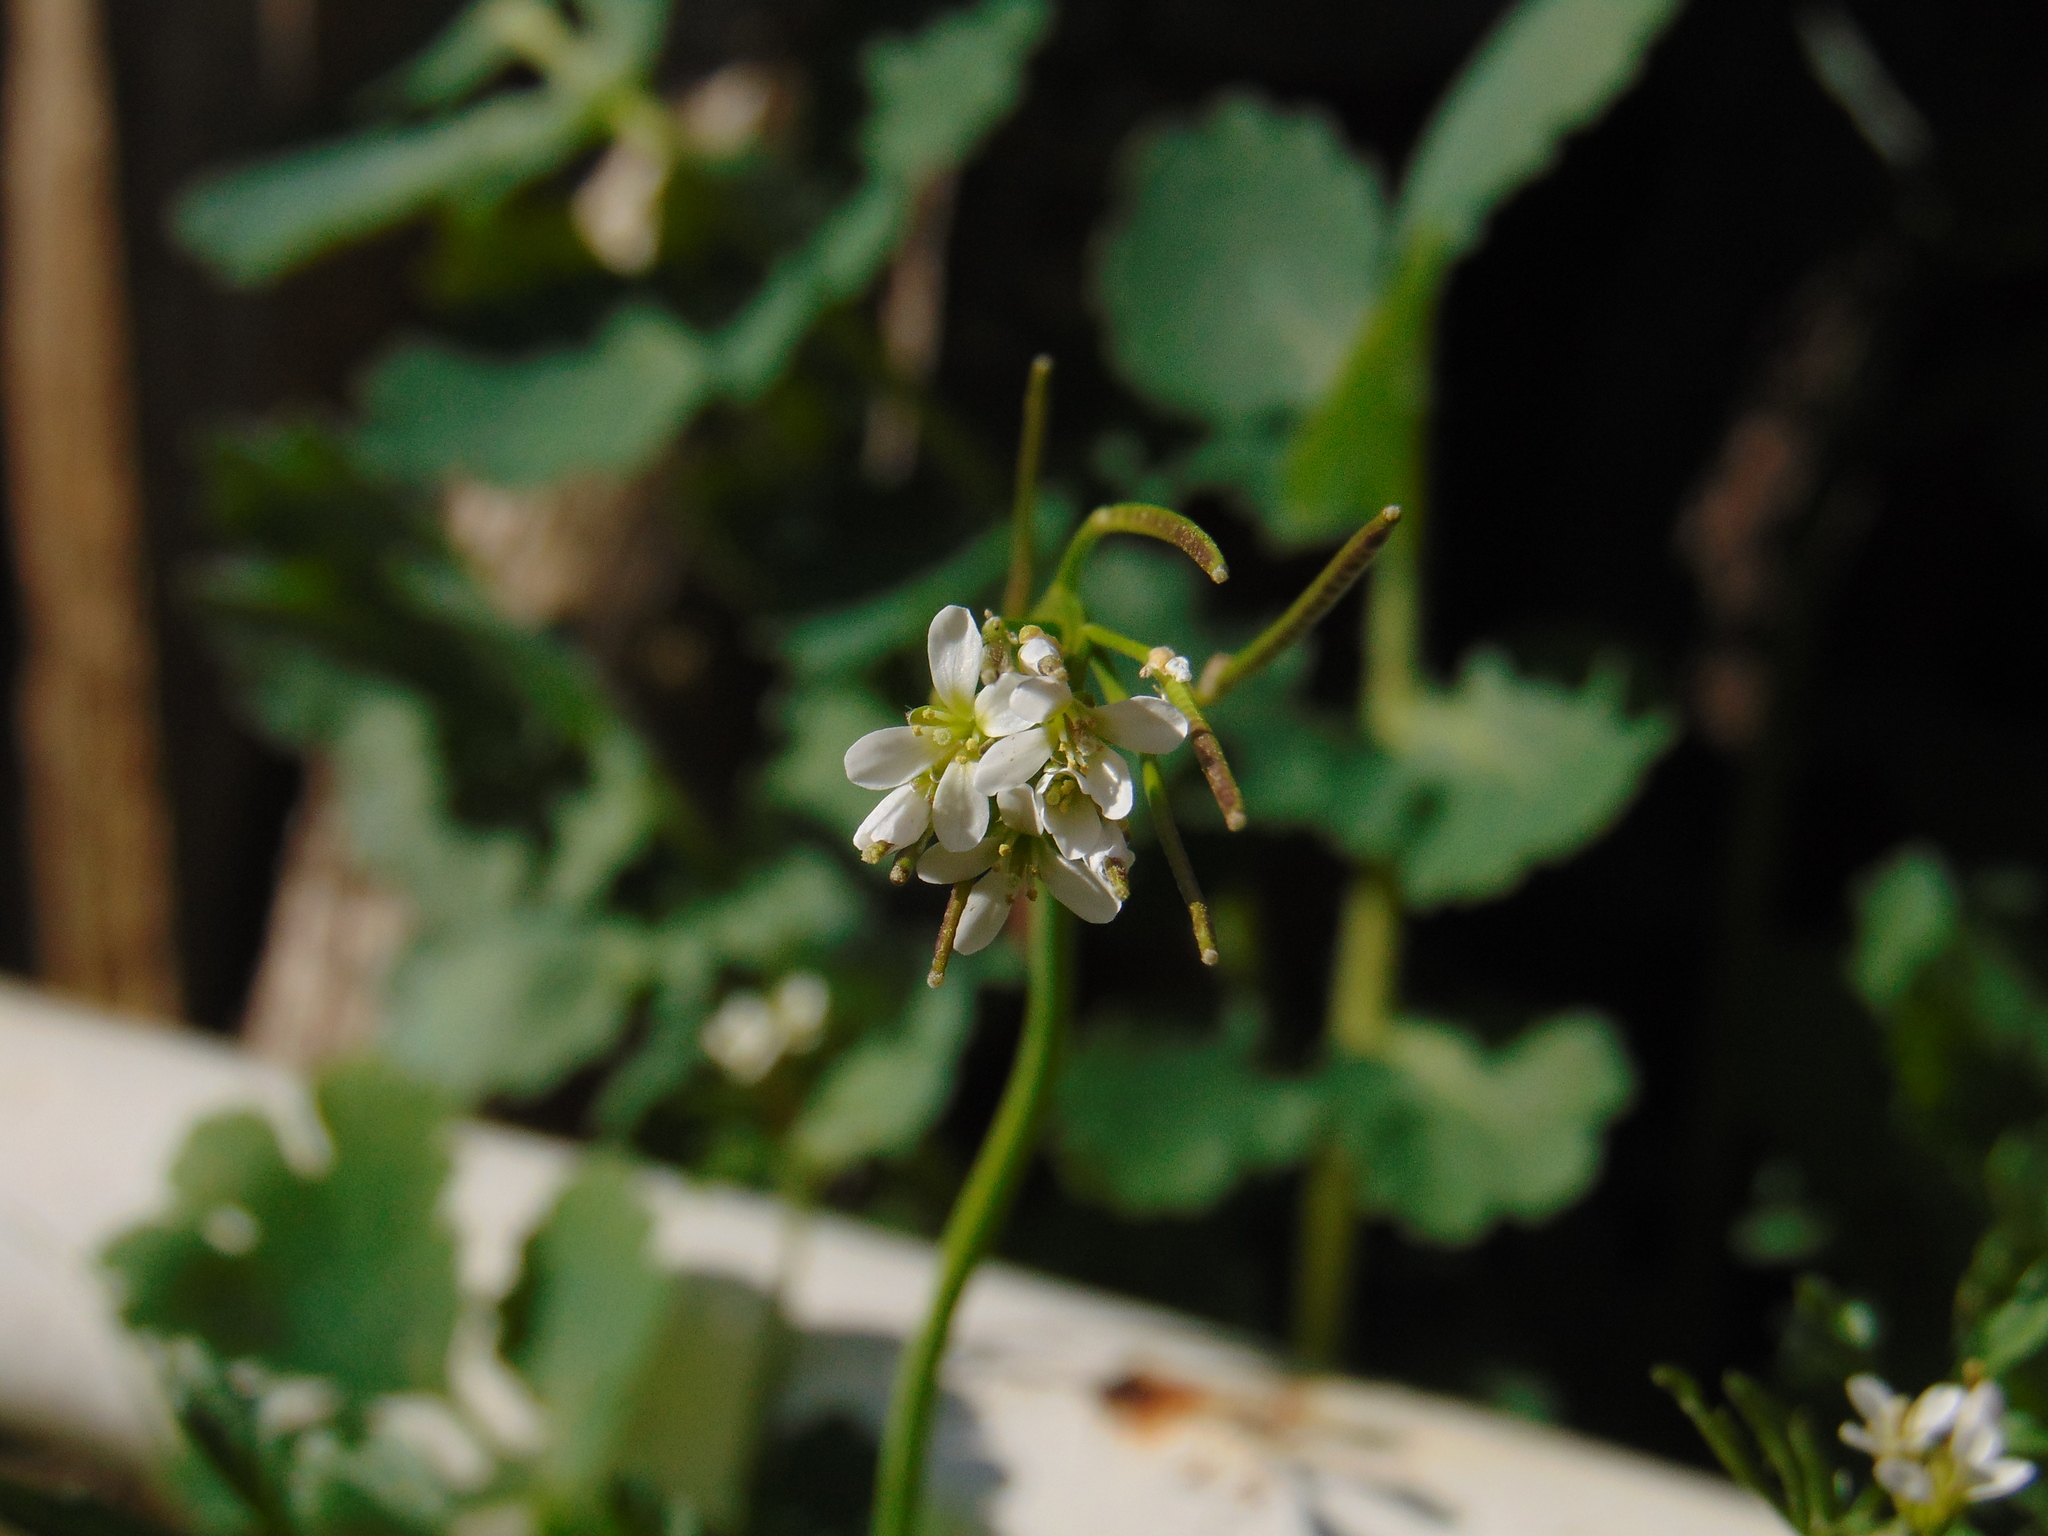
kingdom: Plantae
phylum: Tracheophyta
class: Magnoliopsida
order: Brassicales
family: Brassicaceae
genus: Cardamine
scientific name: Cardamine hirsuta
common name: Hairy bittercress
